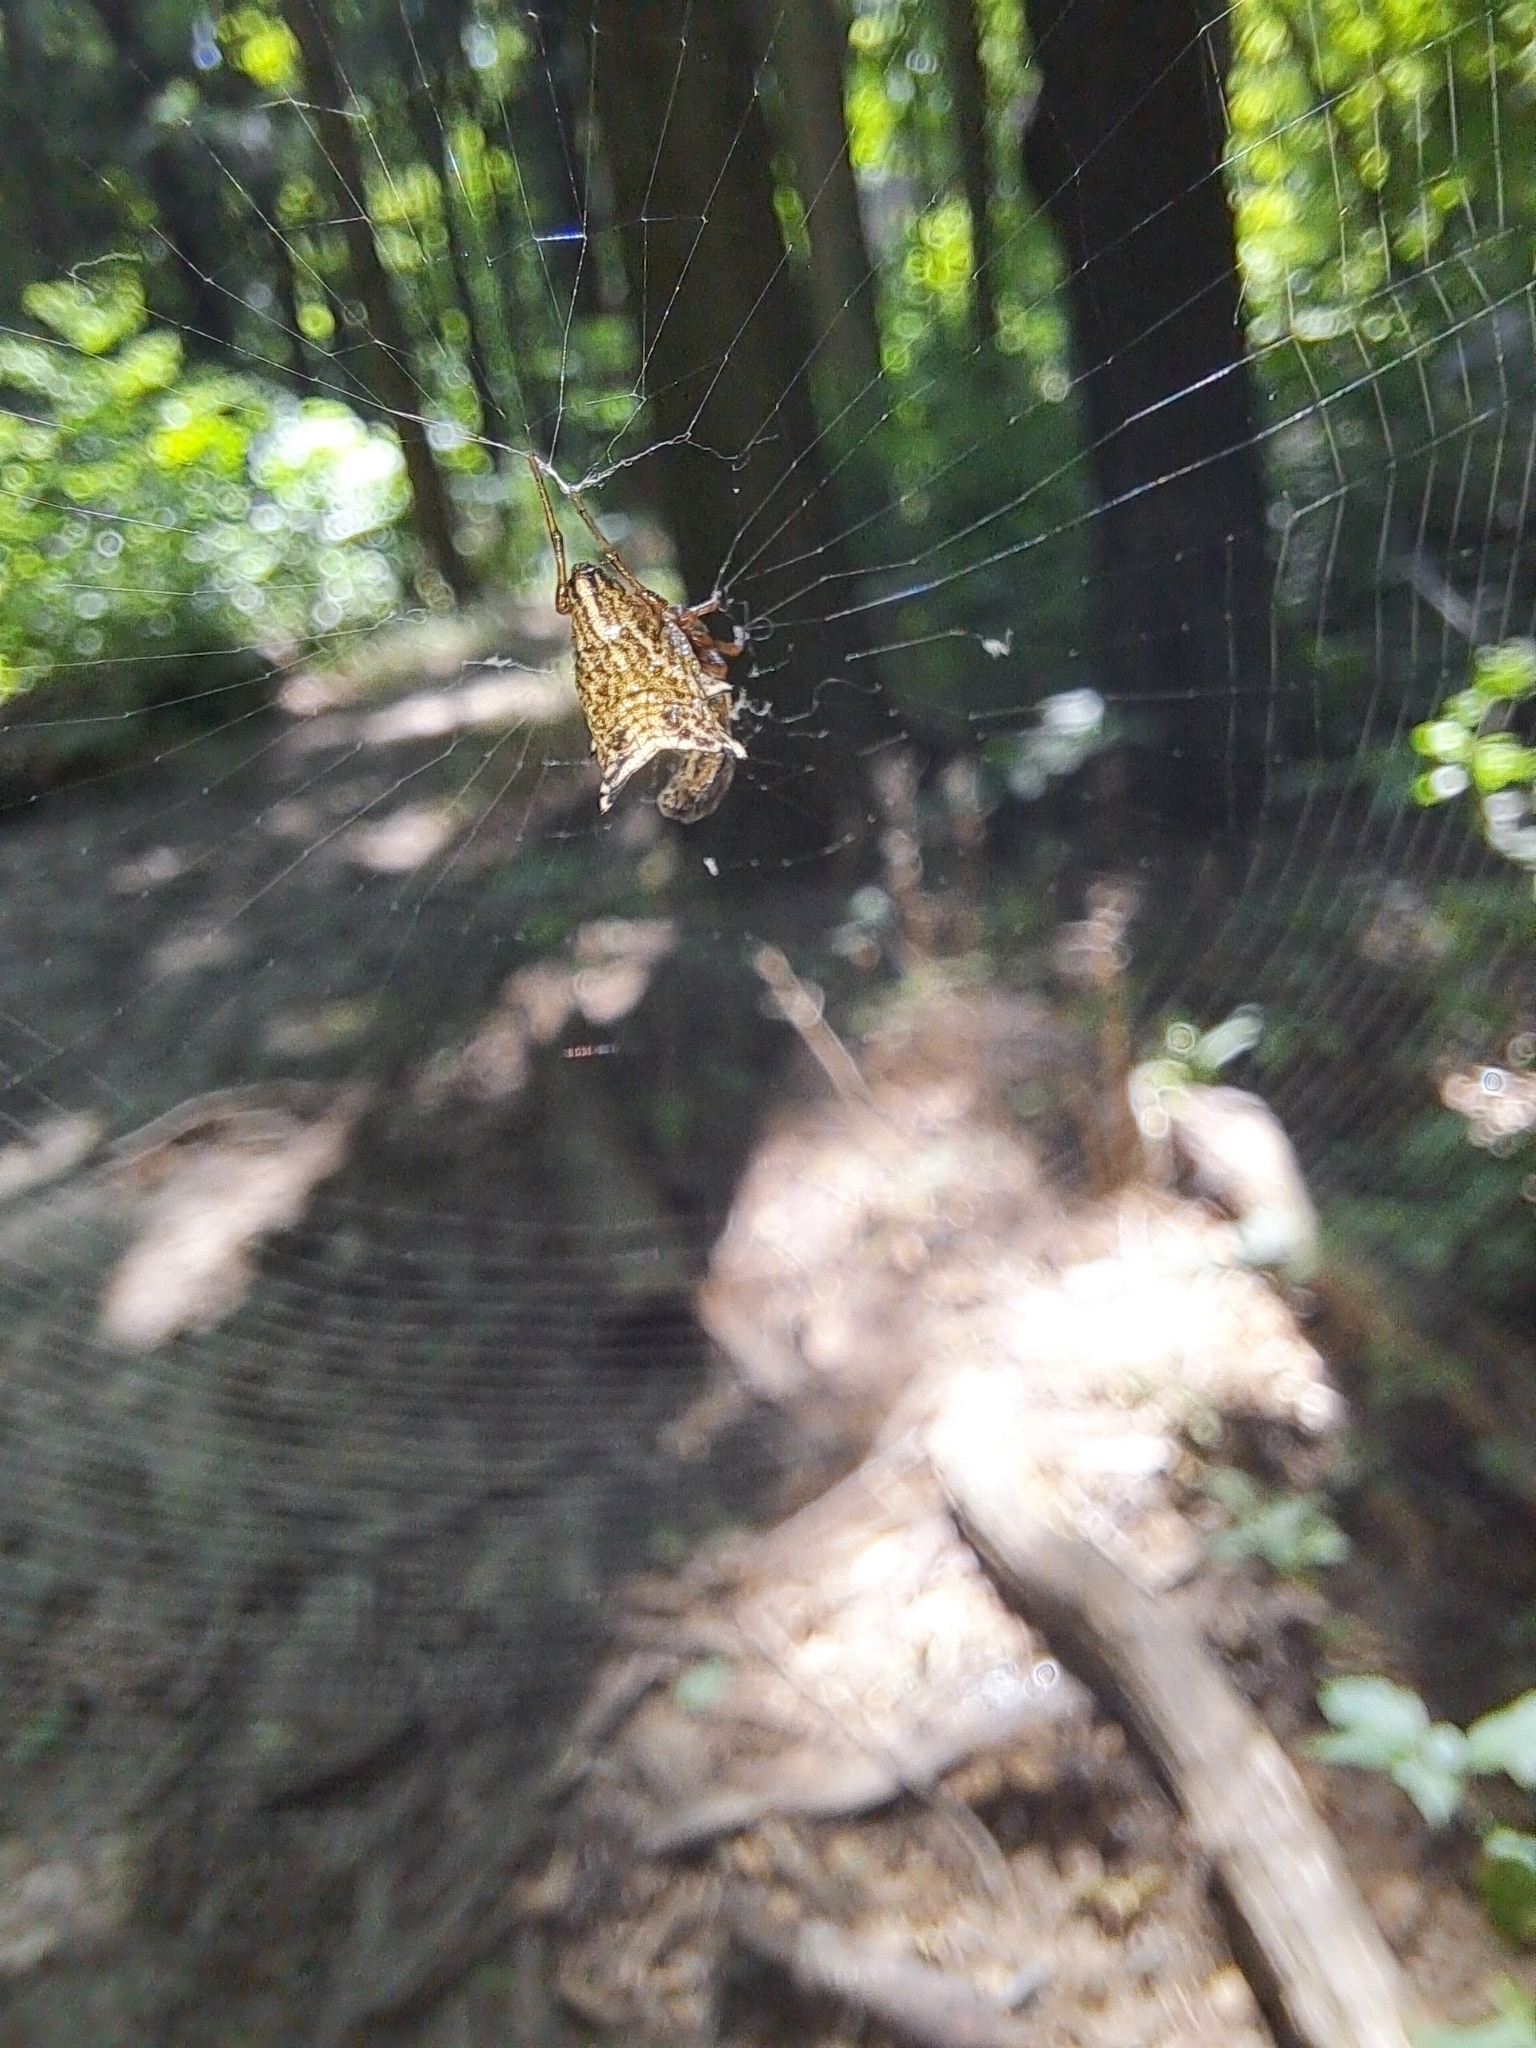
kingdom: Animalia
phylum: Arthropoda
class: Arachnida
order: Araneae
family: Araneidae
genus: Micrathena
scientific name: Micrathena gracilis
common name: Orb weavers
